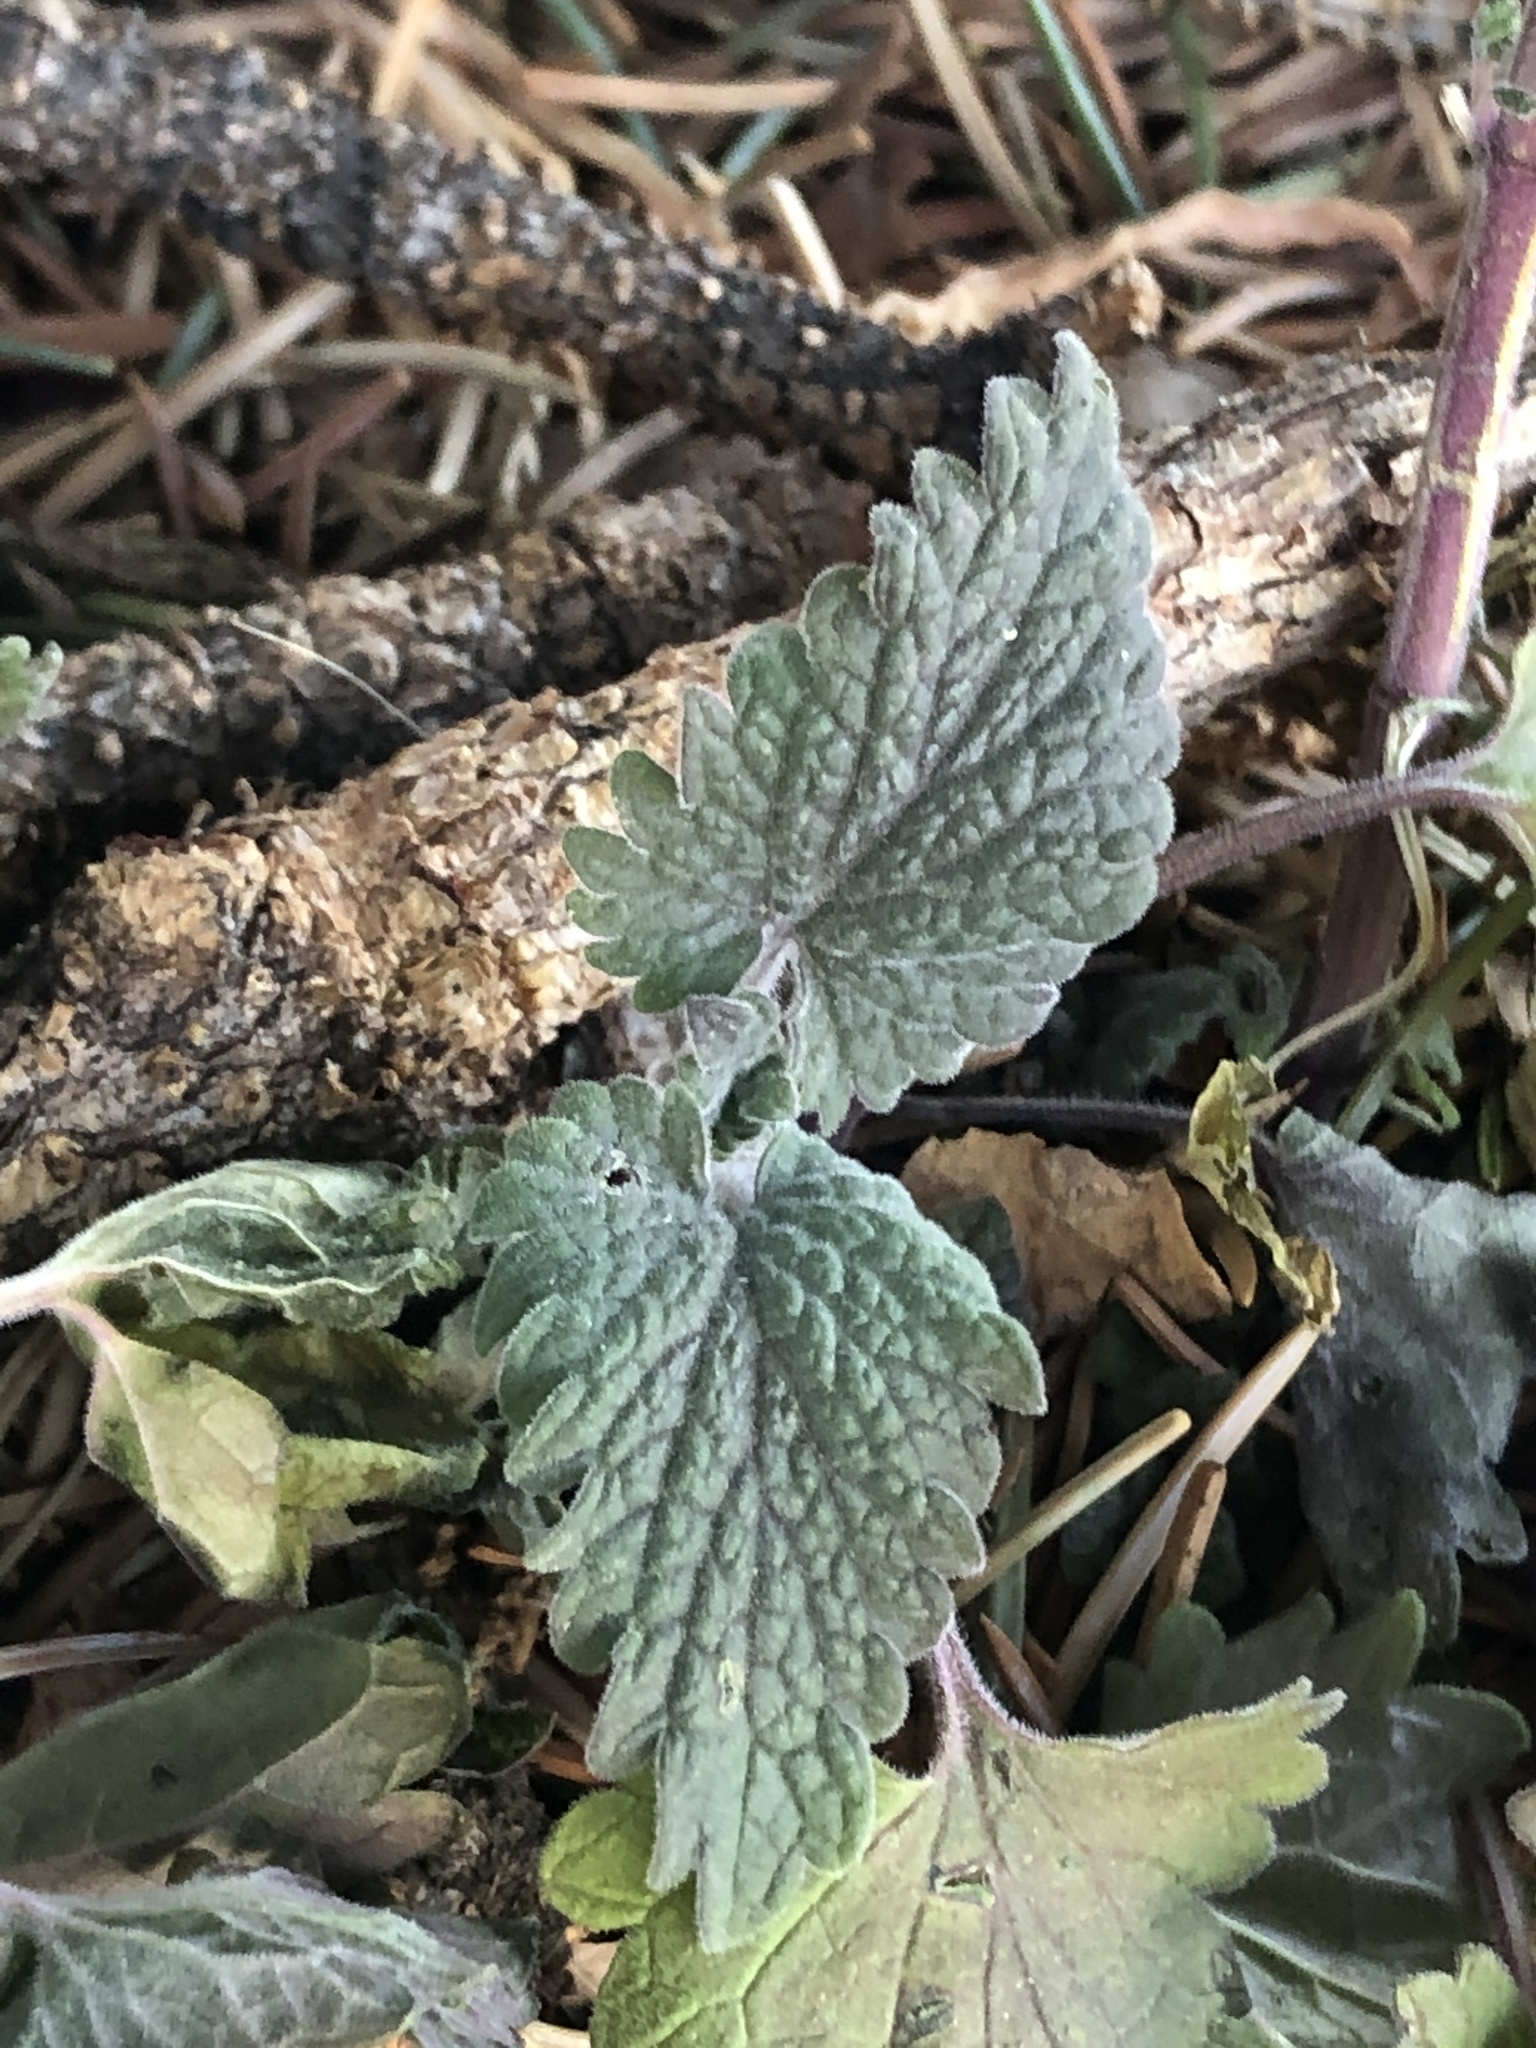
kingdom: Plantae
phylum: Tracheophyta
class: Magnoliopsida
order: Lamiales
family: Lamiaceae
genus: Nepeta
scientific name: Nepeta cataria
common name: Catnip
